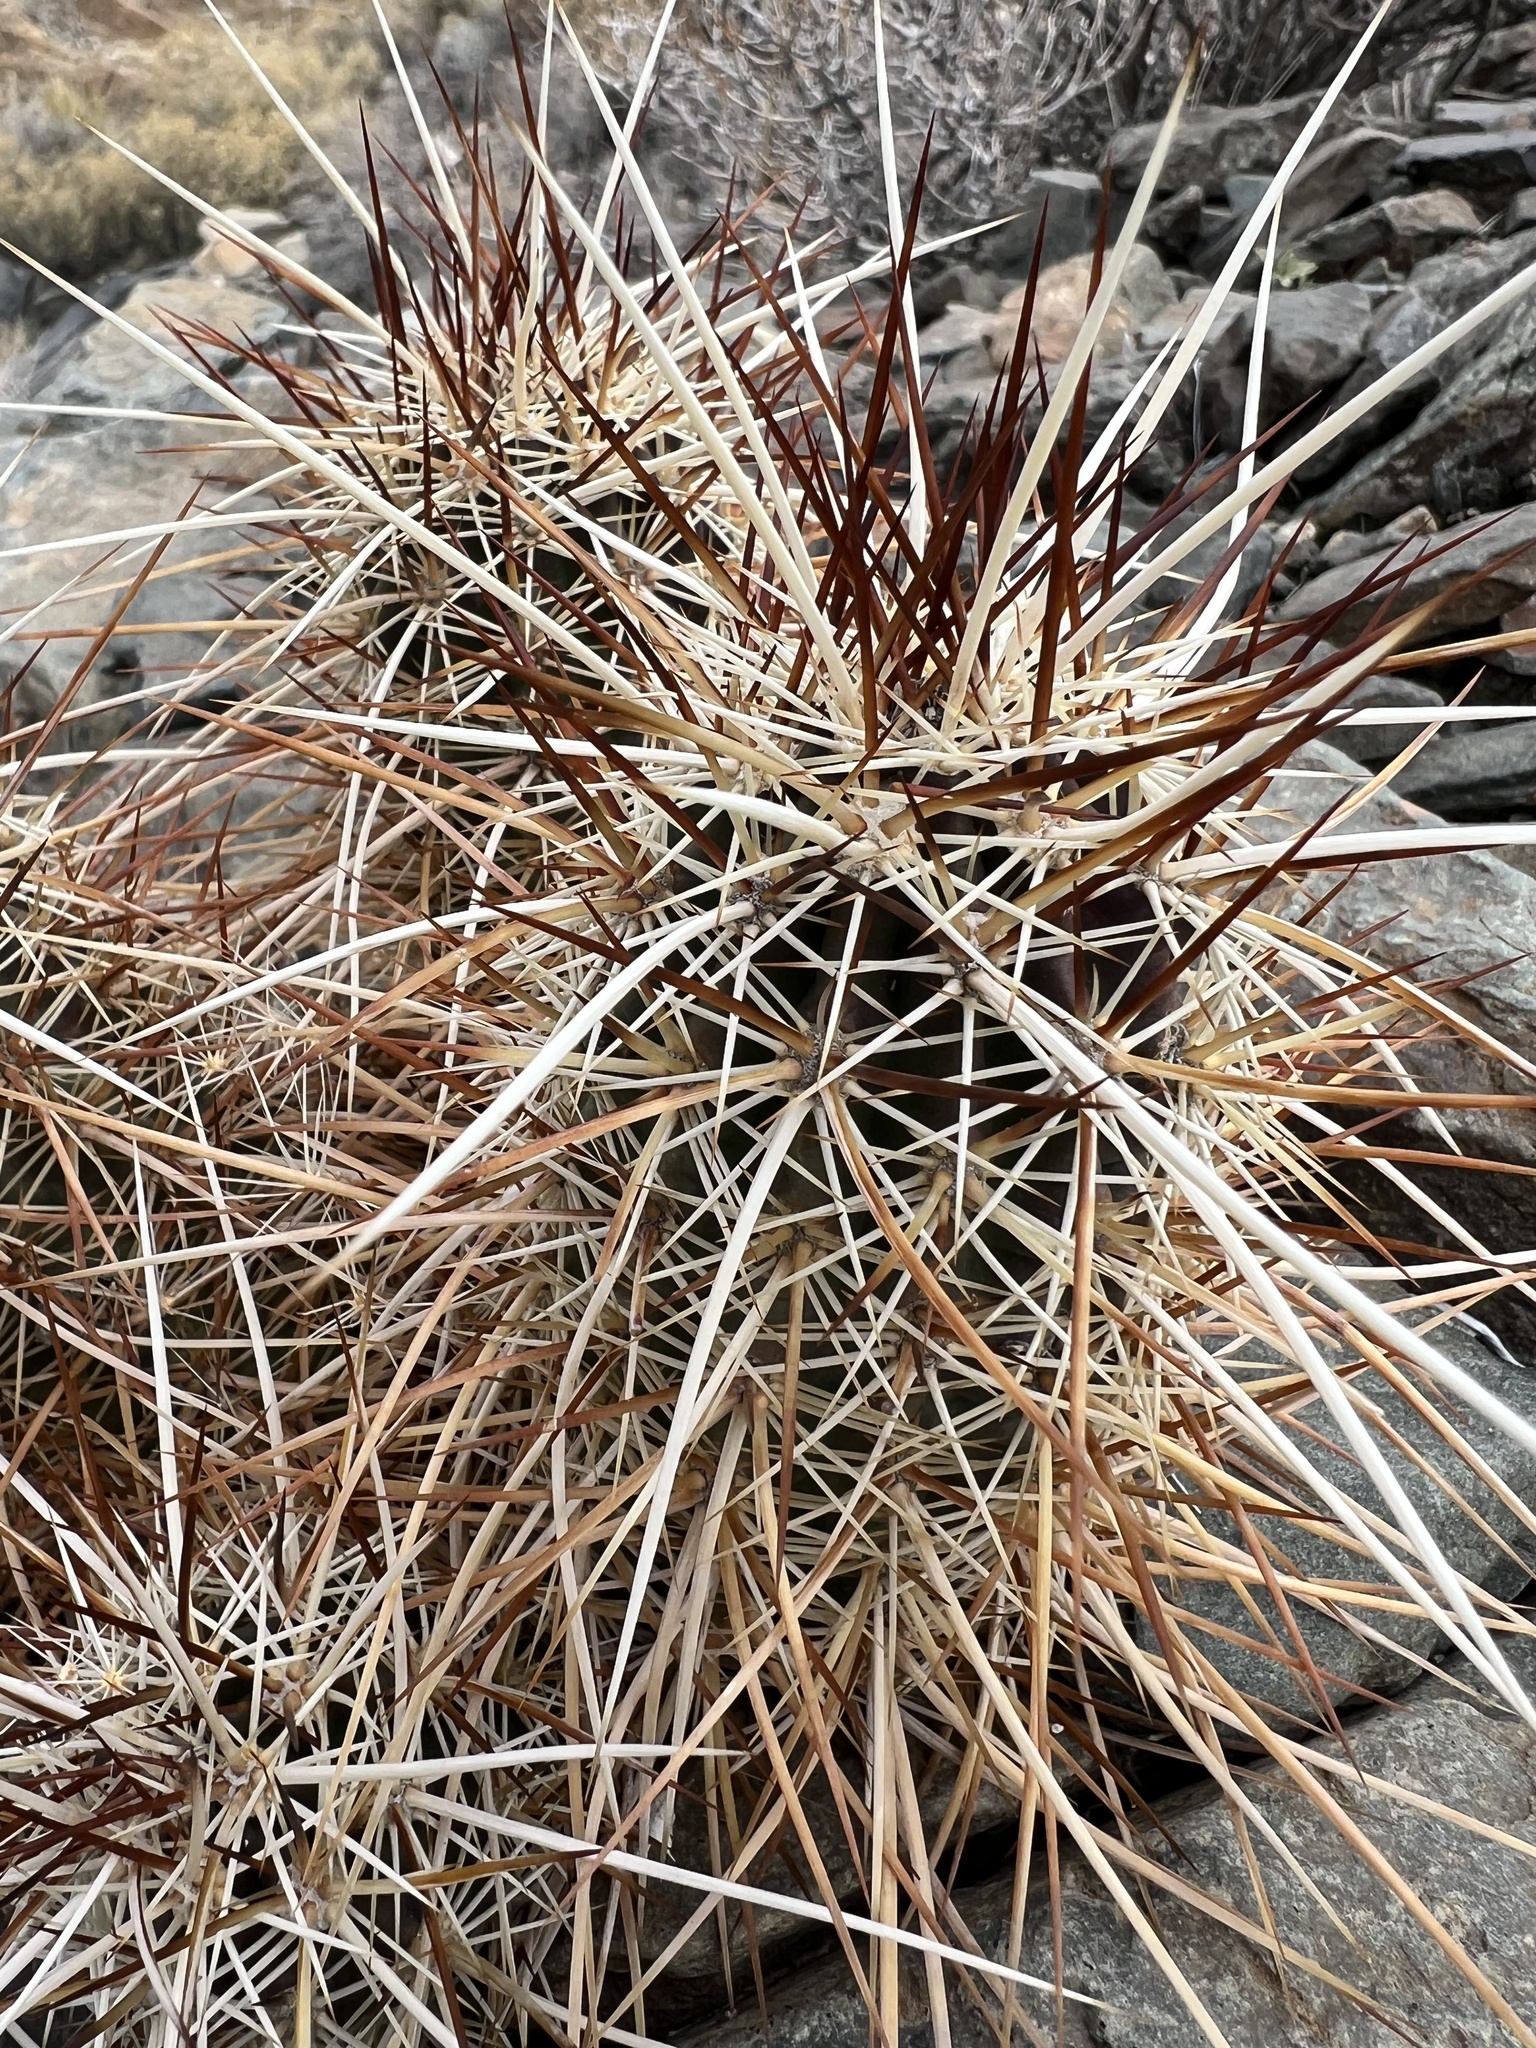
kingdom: Plantae
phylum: Tracheophyta
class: Magnoliopsida
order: Caryophyllales
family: Cactaceae
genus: Echinocereus
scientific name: Echinocereus engelmannii
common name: Engelmann's hedgehog cactus
